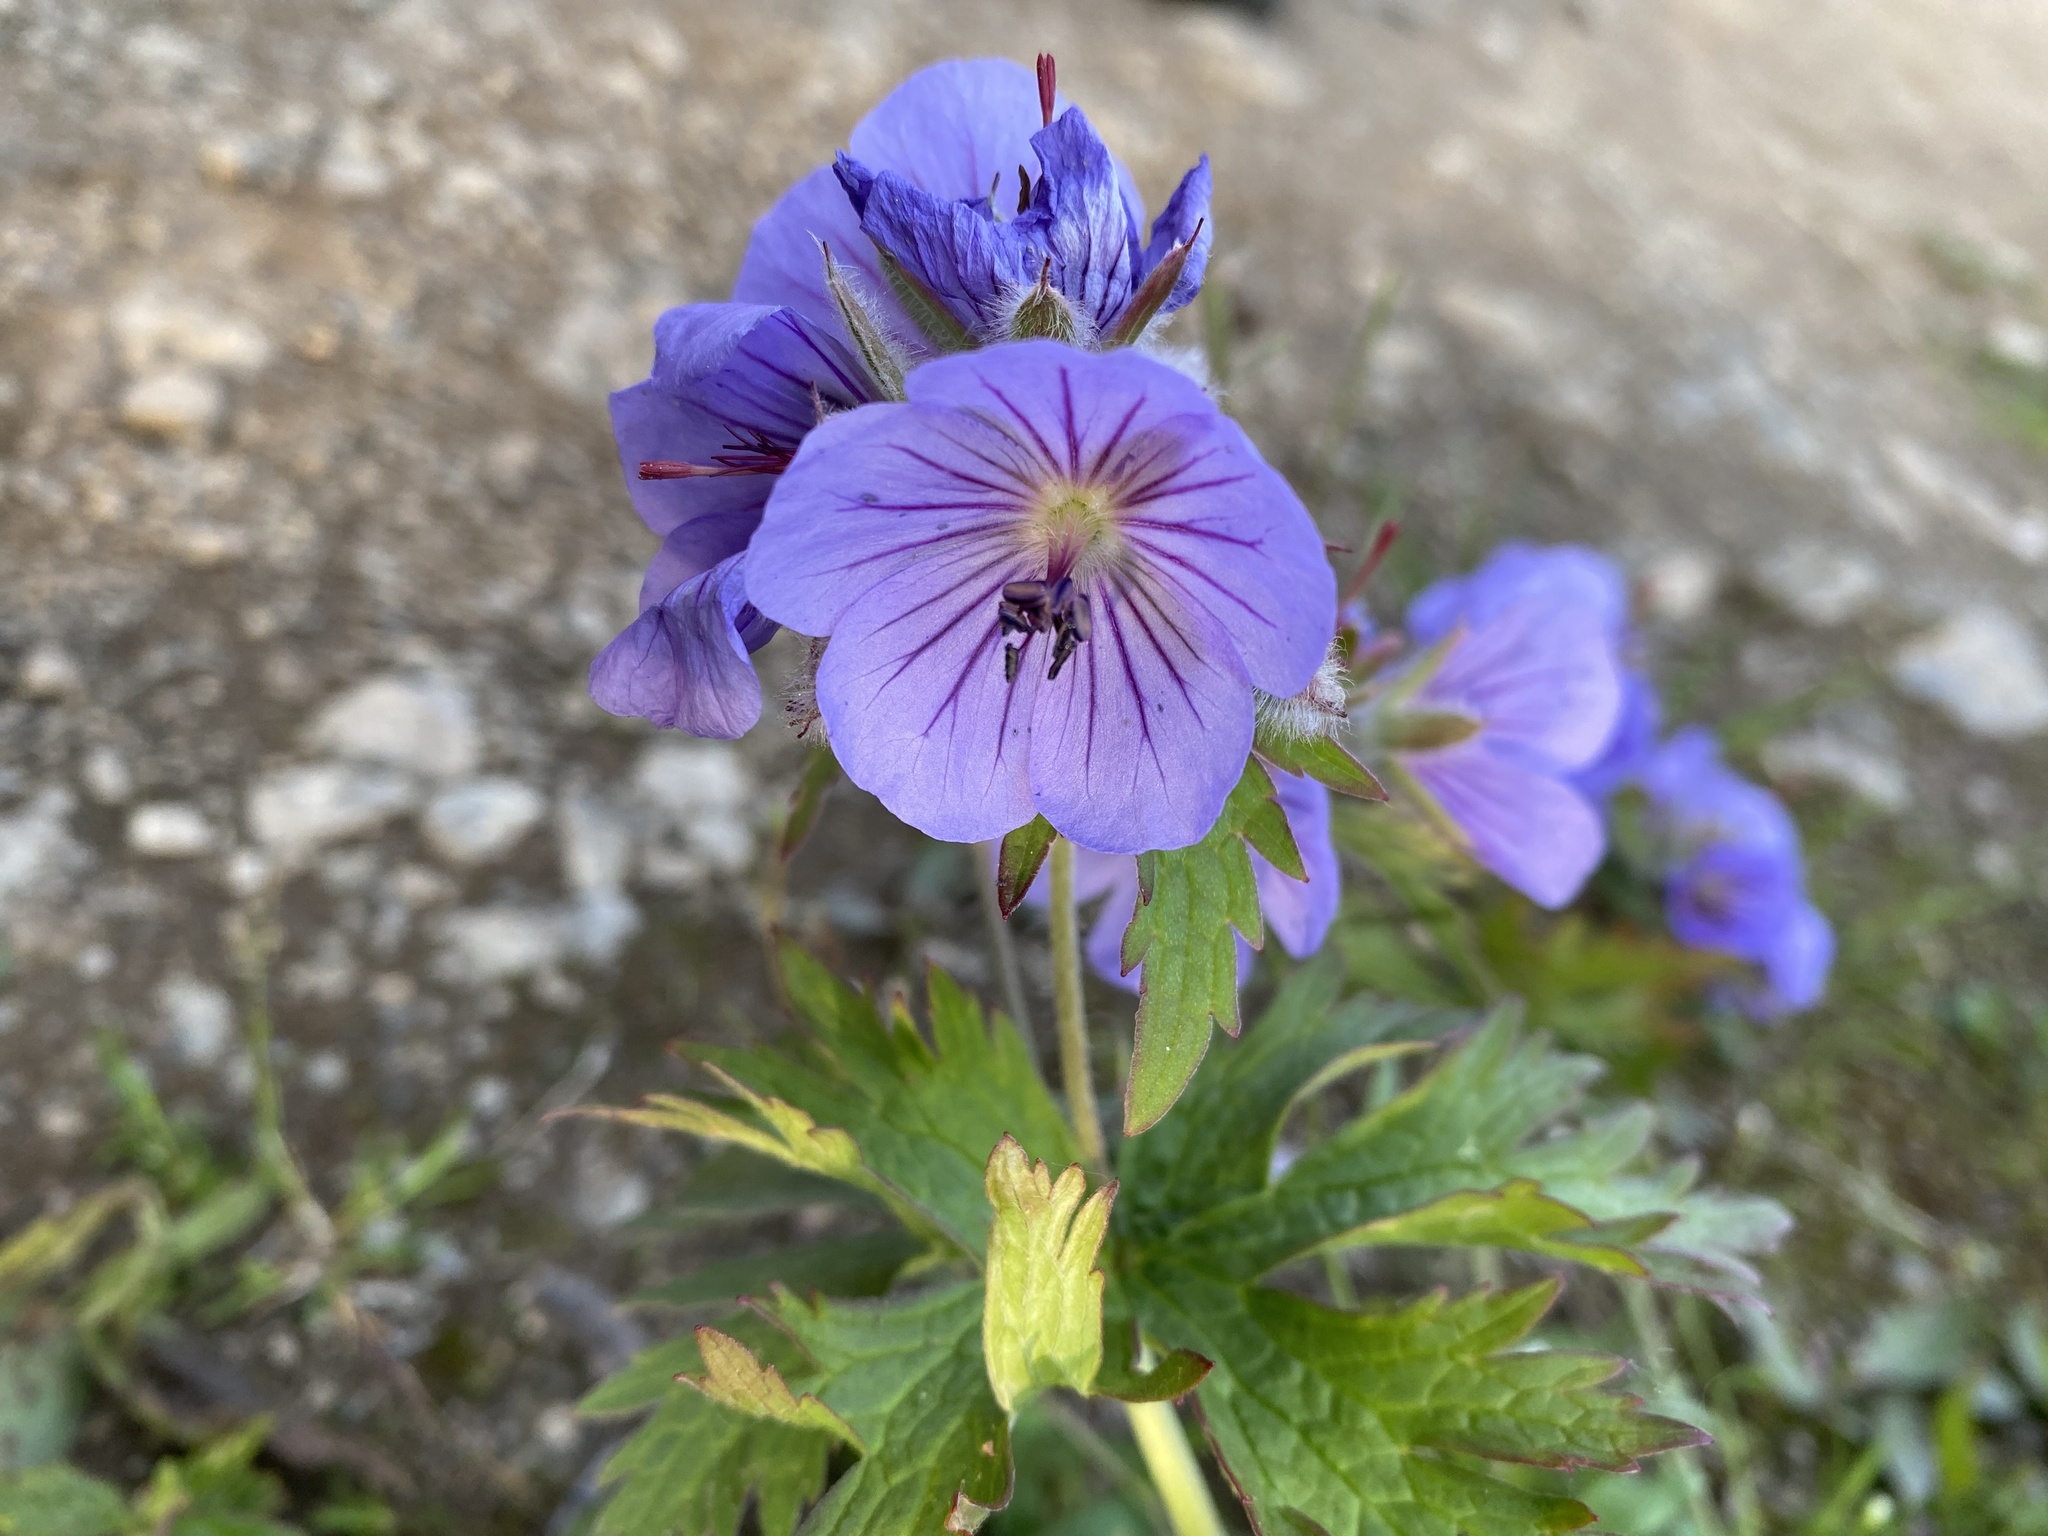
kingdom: Plantae
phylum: Tracheophyta
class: Magnoliopsida
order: Geraniales
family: Geraniaceae
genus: Geranium
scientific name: Geranium erianthum
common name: Northern crane's-bill
